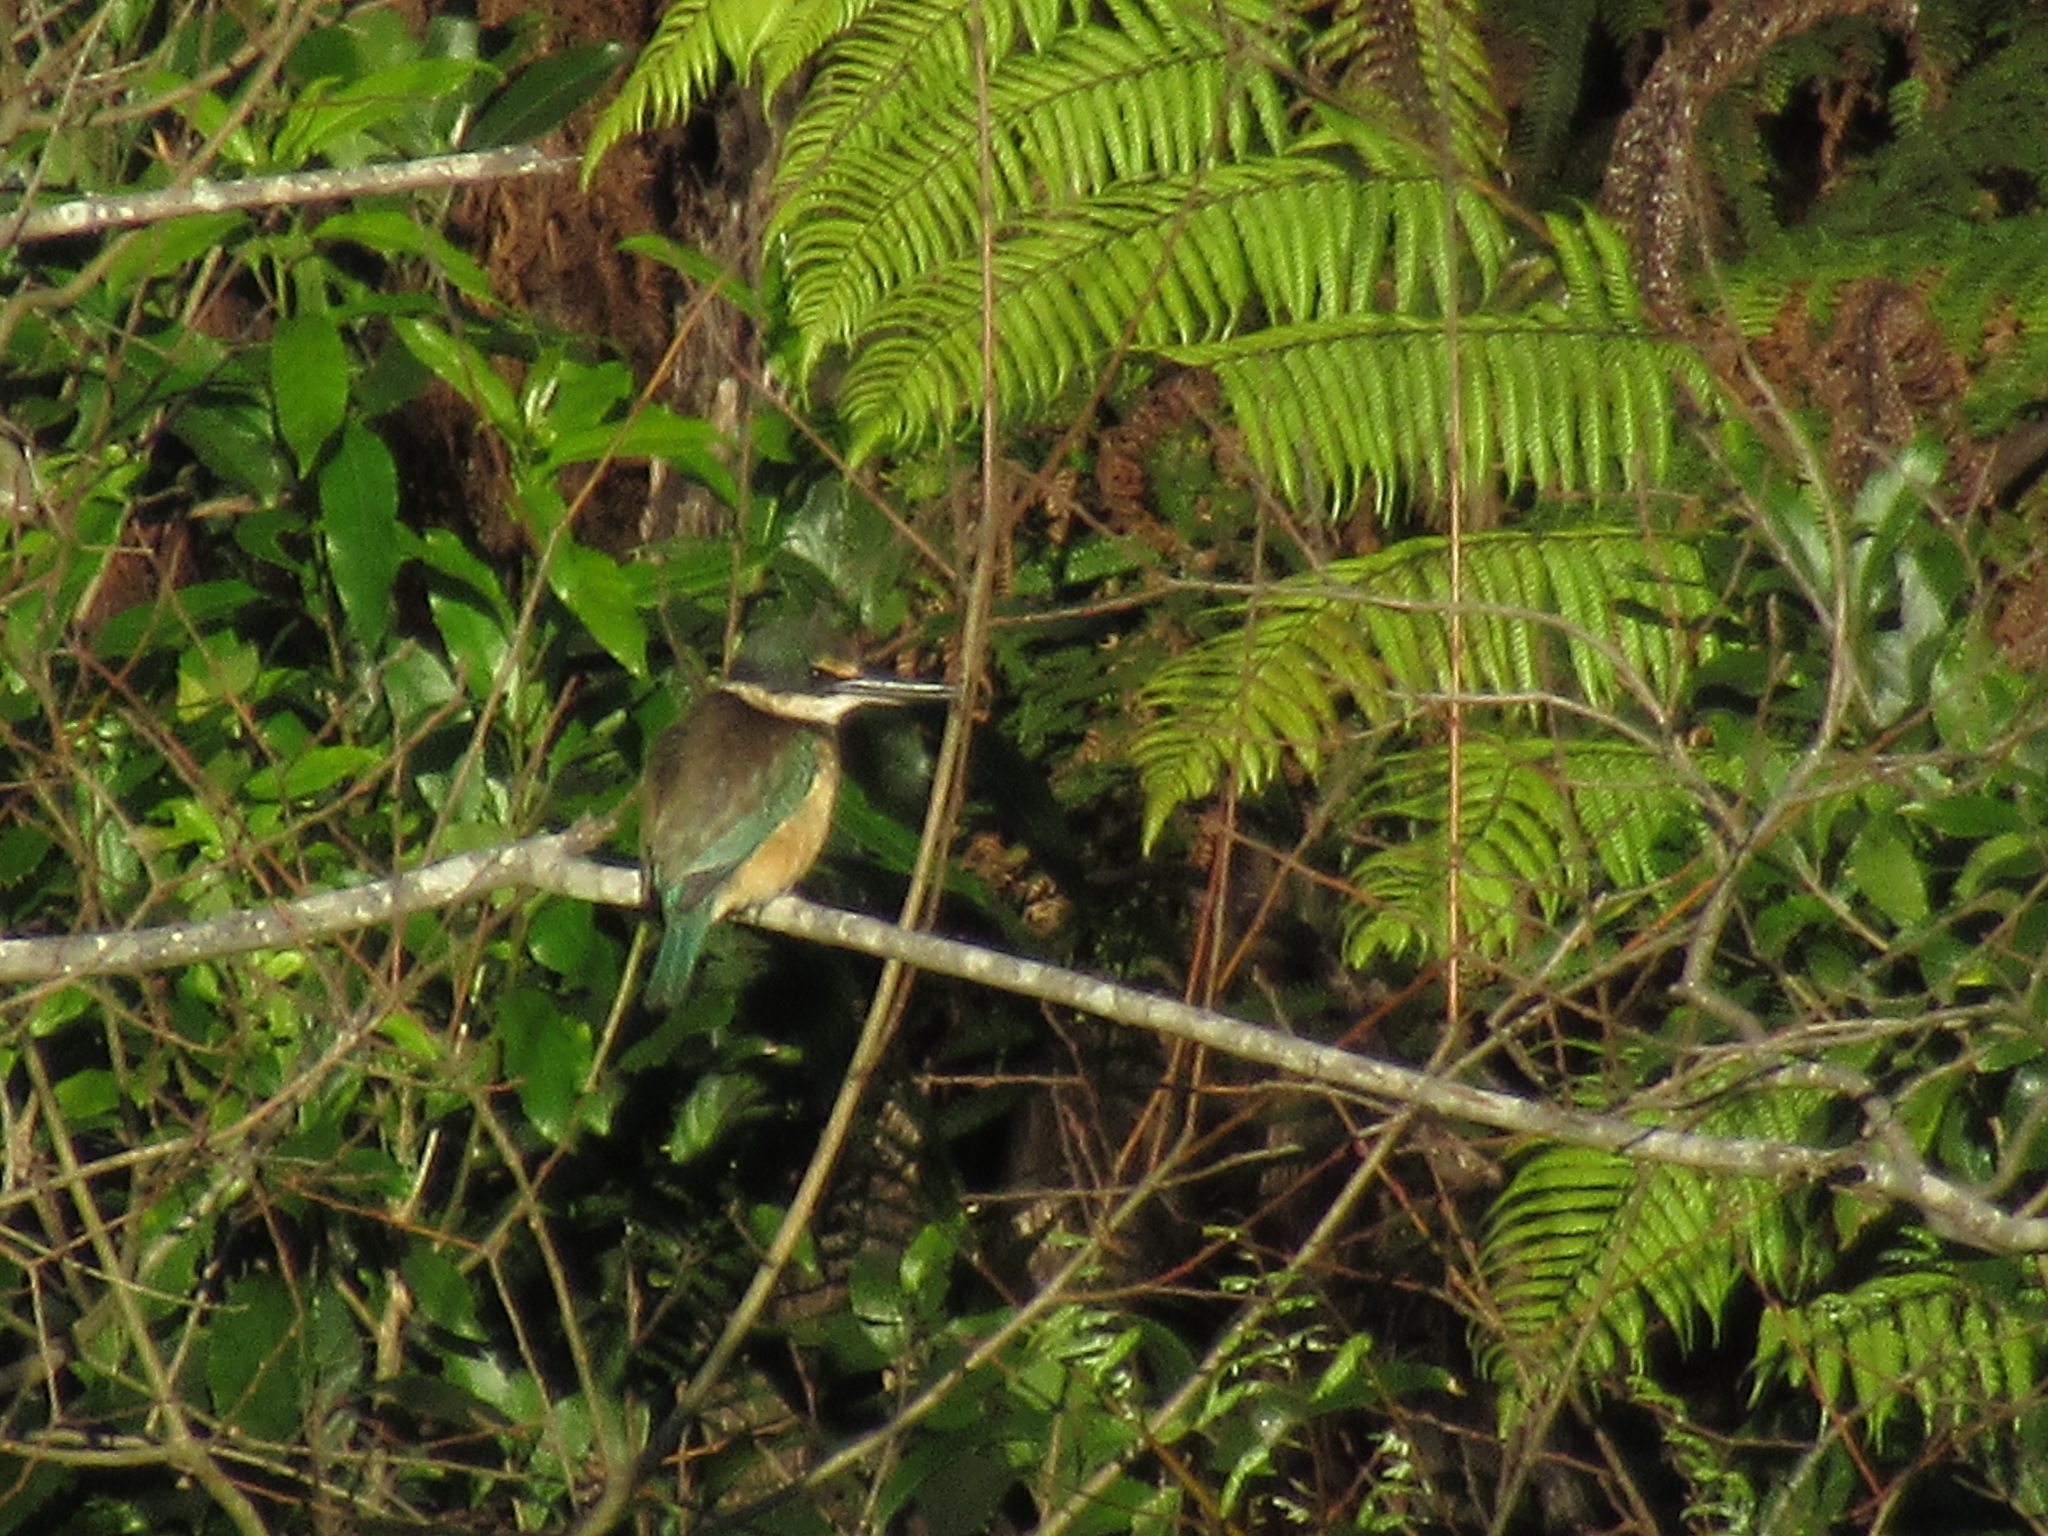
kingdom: Animalia
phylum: Chordata
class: Aves
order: Coraciiformes
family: Alcedinidae
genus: Todiramphus
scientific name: Todiramphus sanctus
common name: Sacred kingfisher
